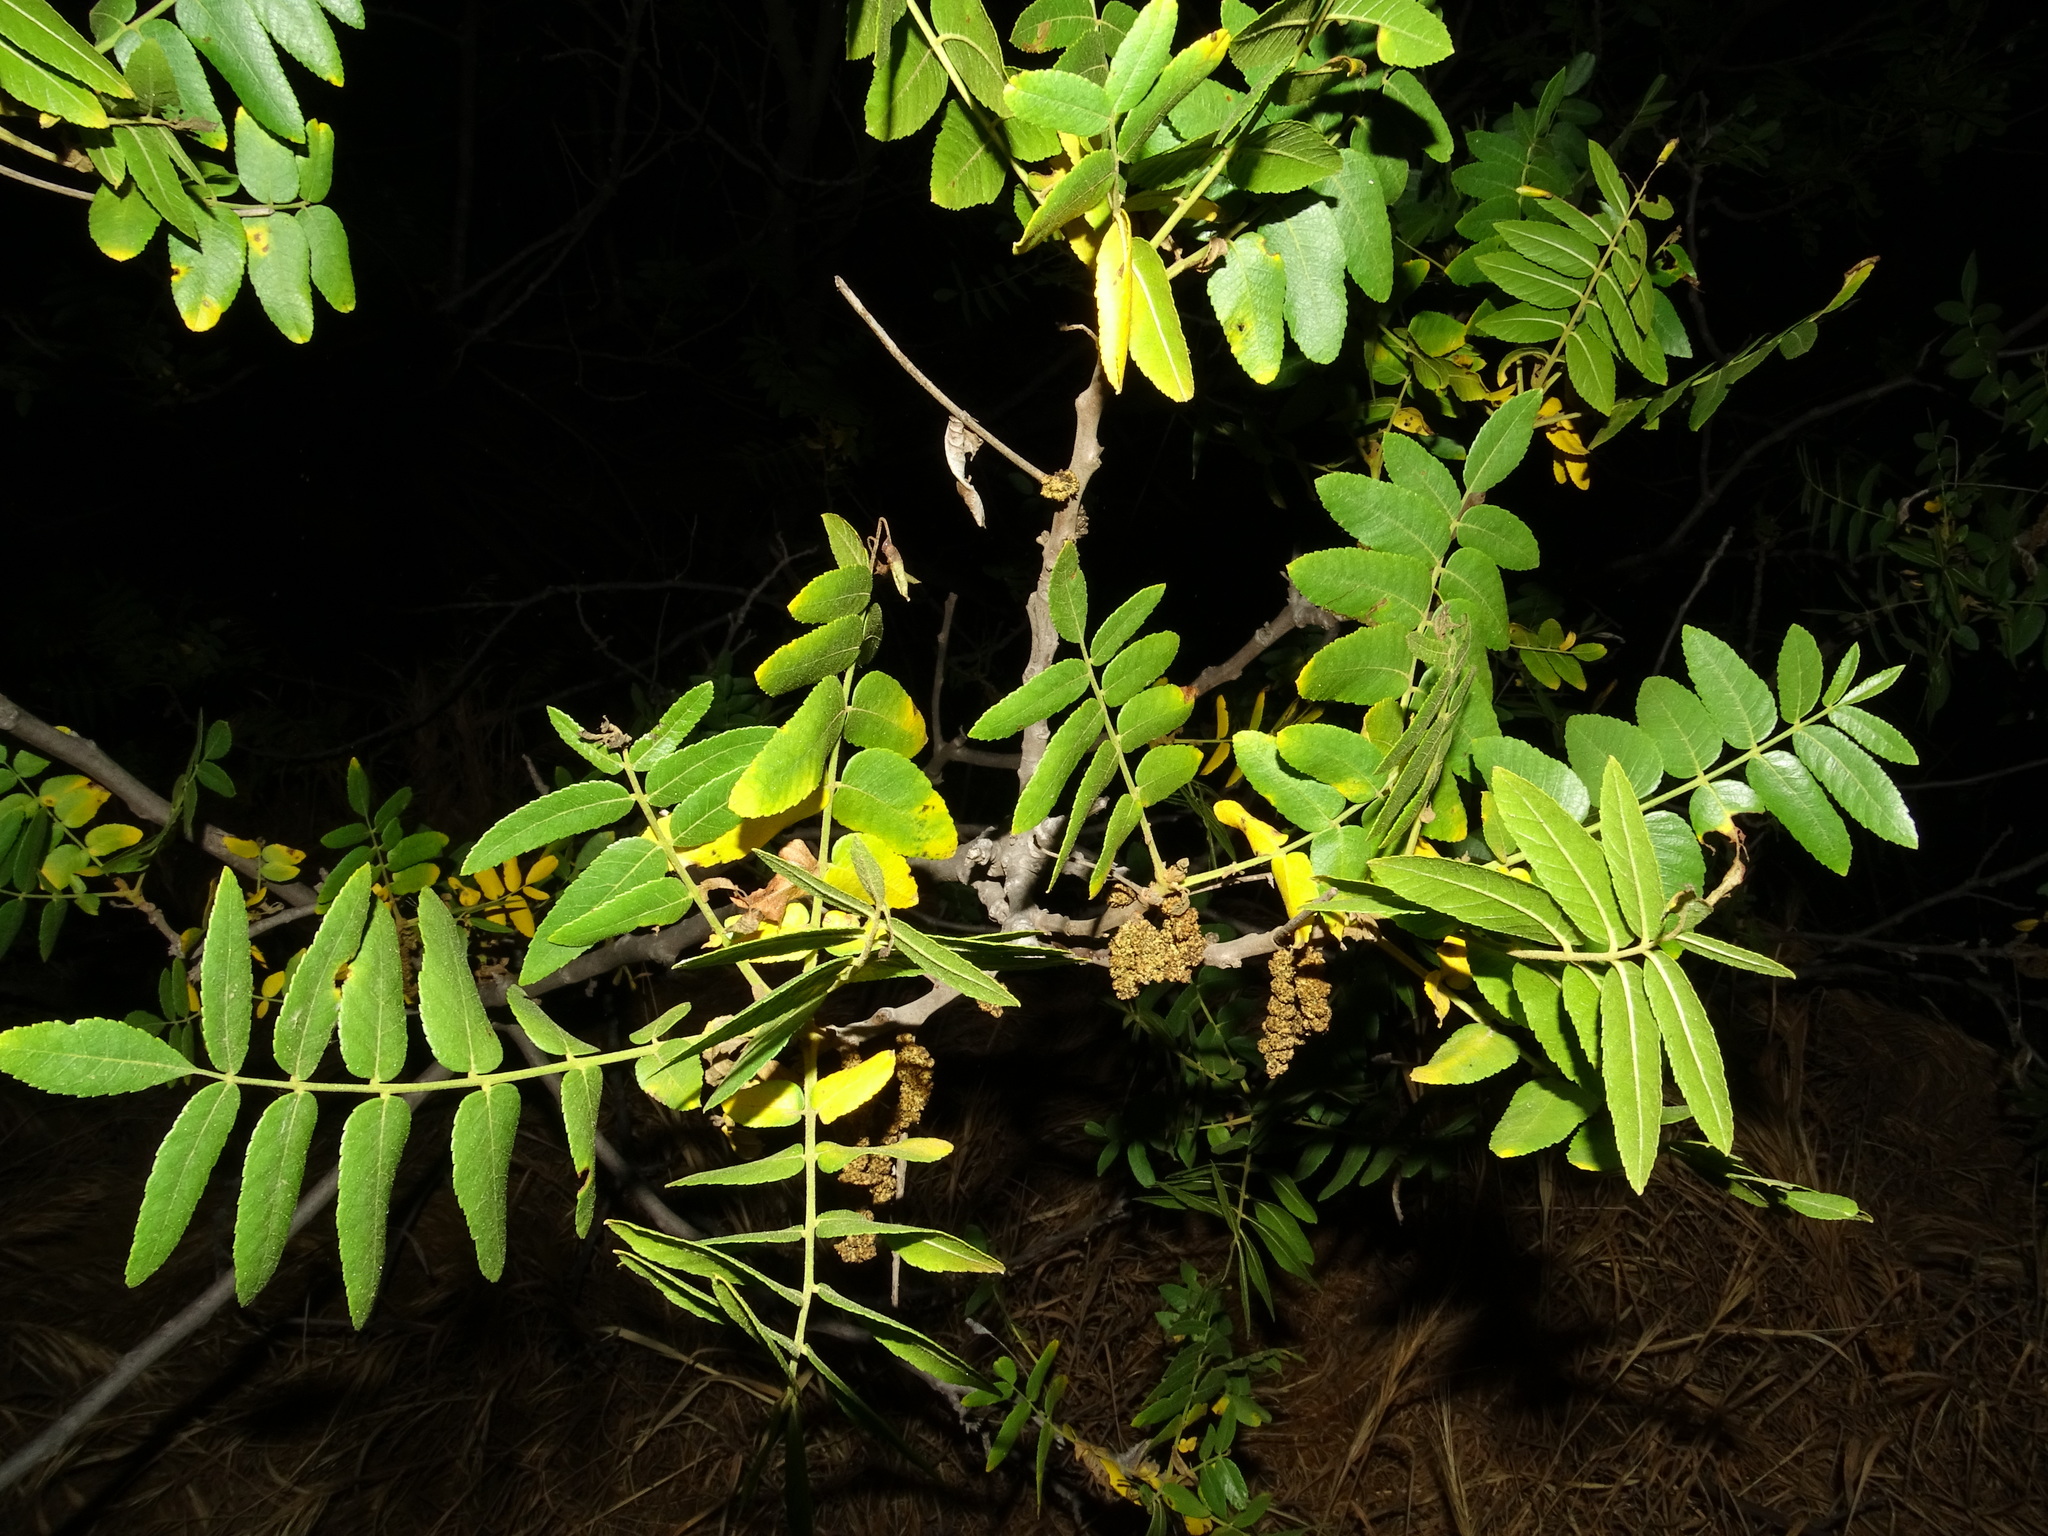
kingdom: Plantae
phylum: Tracheophyta
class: Magnoliopsida
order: Fagales
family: Juglandaceae
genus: Juglans
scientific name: Juglans californica
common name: Southern california black walnut
